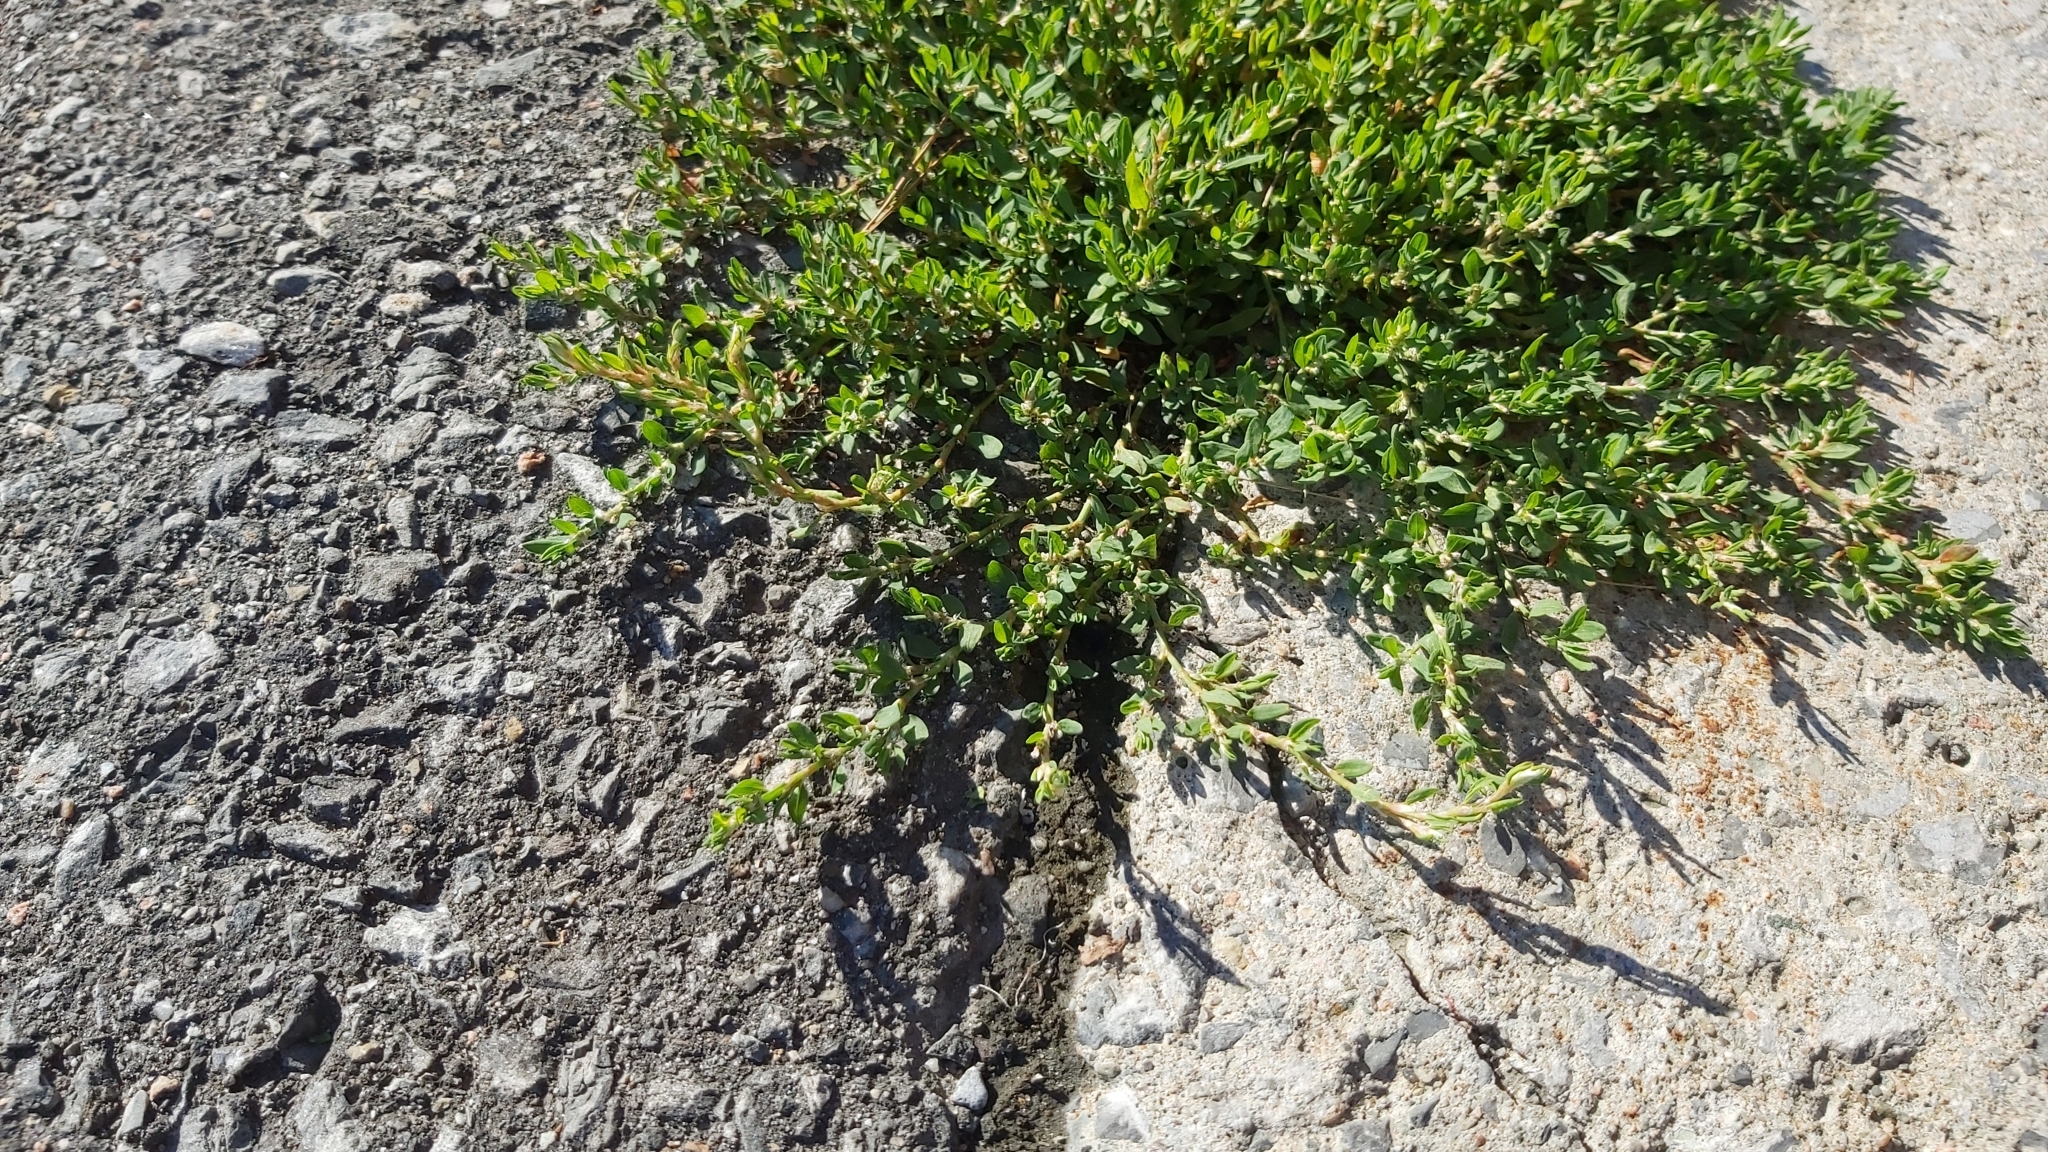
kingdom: Plantae
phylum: Tracheophyta
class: Magnoliopsida
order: Caryophyllales
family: Polygonaceae
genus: Polygonum
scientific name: Polygonum aviculare
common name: Prostrate knotweed
